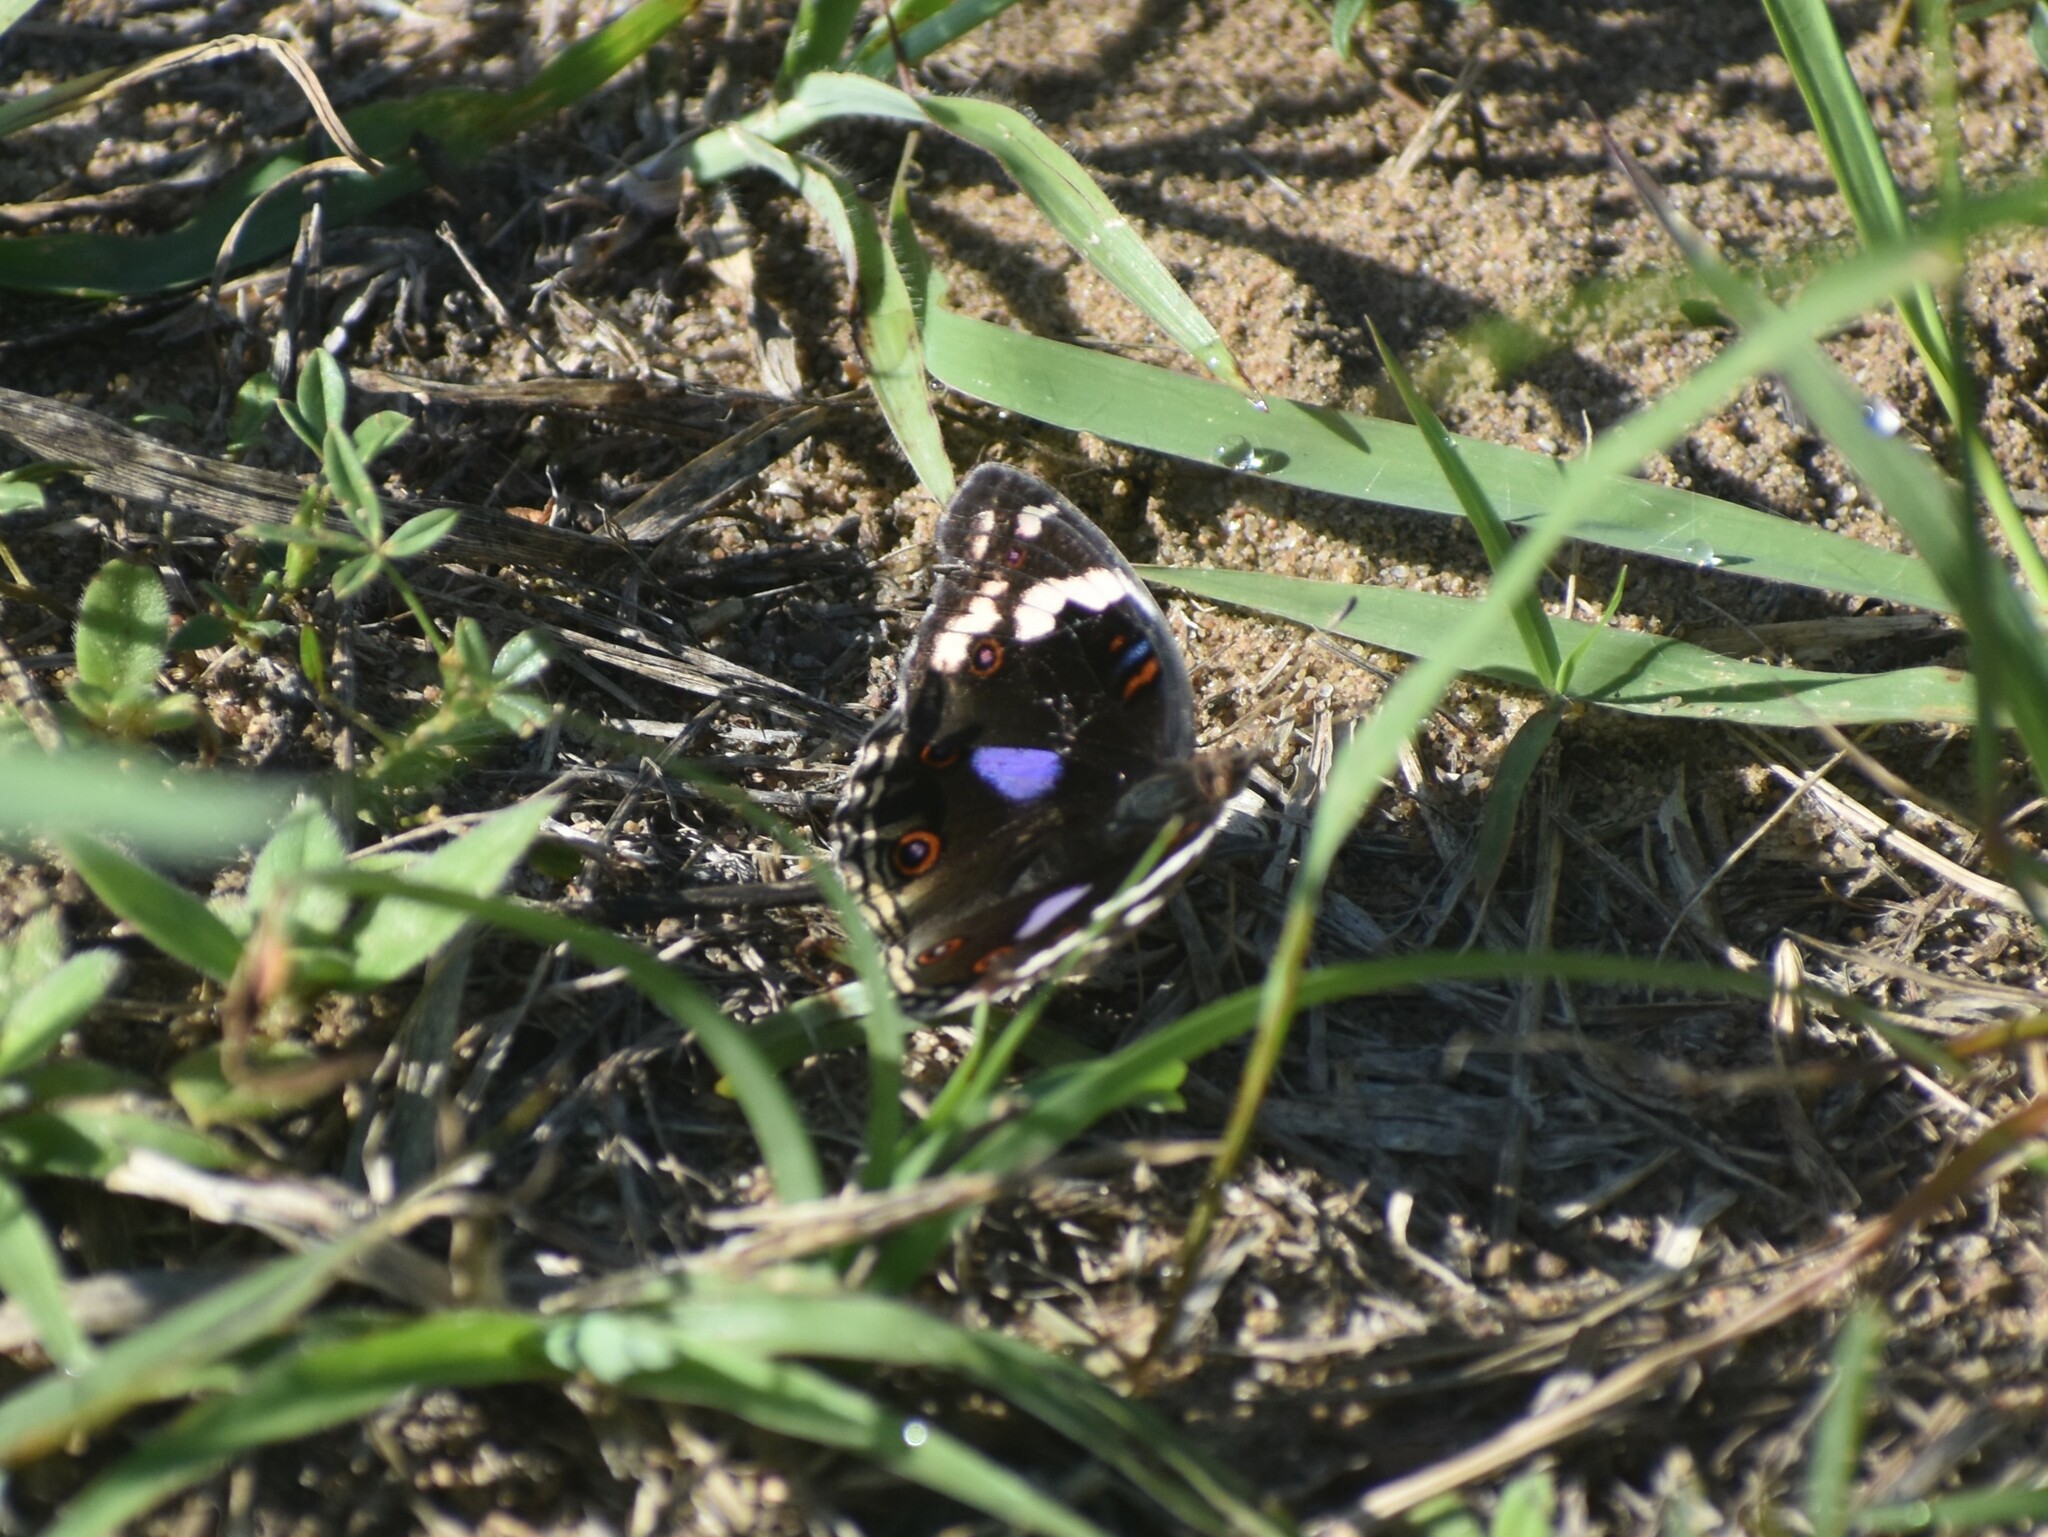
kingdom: Animalia
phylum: Arthropoda
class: Insecta
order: Lepidoptera
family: Nymphalidae
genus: Junonia
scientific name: Junonia oenone
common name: Dark blue pansy
